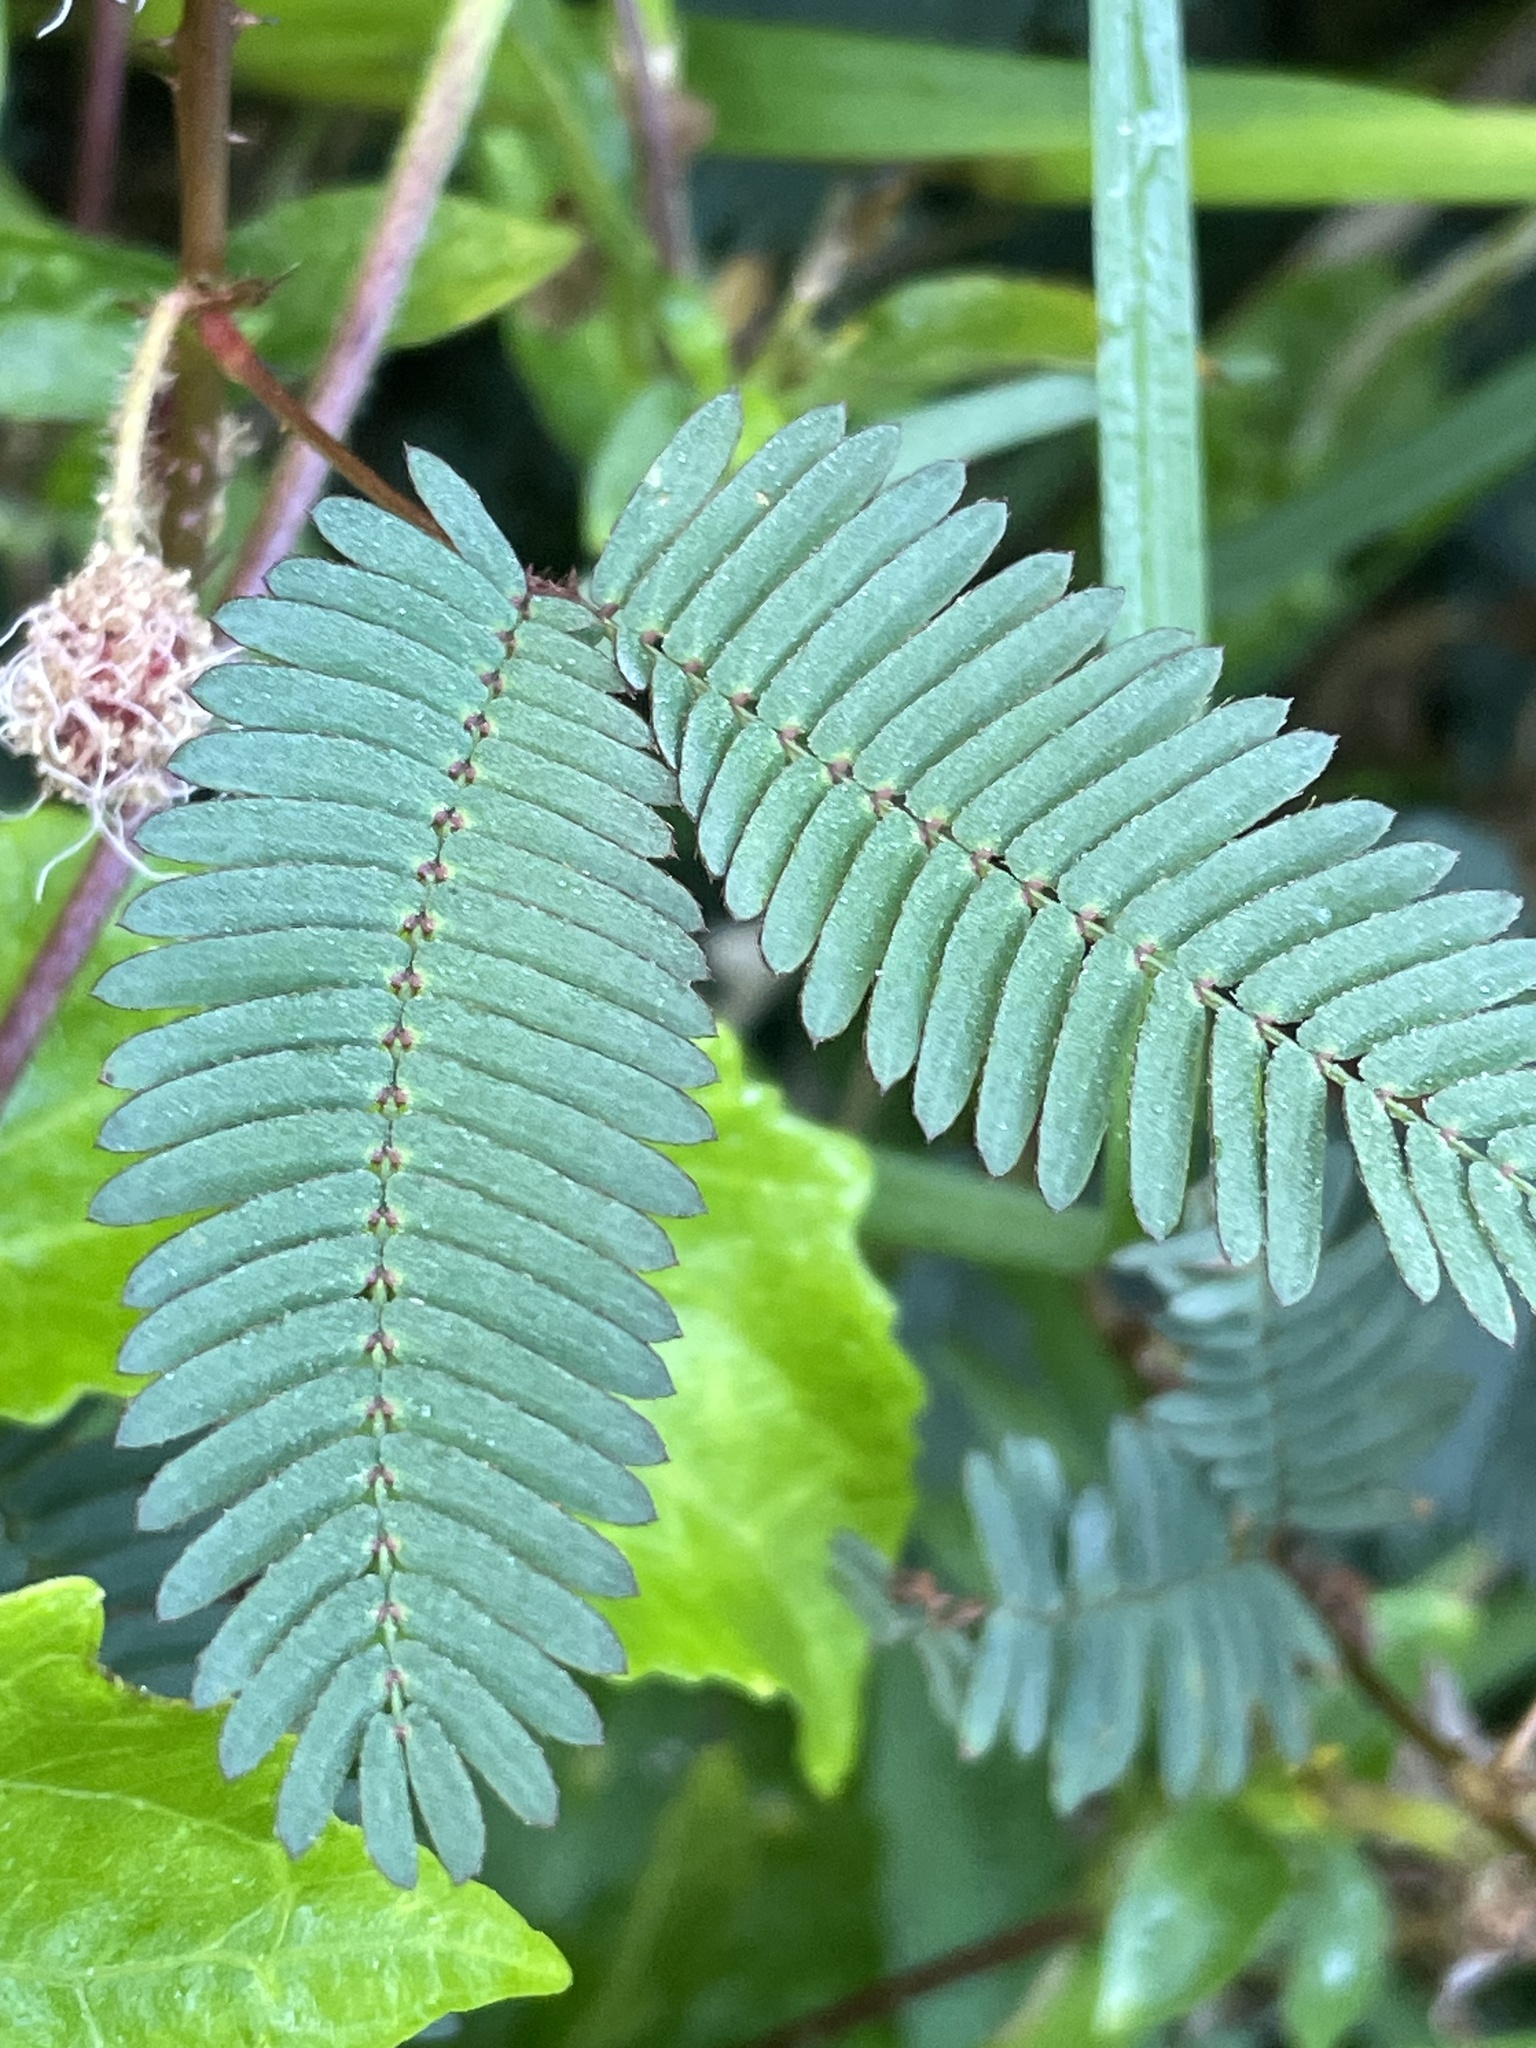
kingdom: Plantae
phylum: Tracheophyta
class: Magnoliopsida
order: Fabales
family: Fabaceae
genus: Mimosa
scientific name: Mimosa pudica
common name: Sensitive plant
